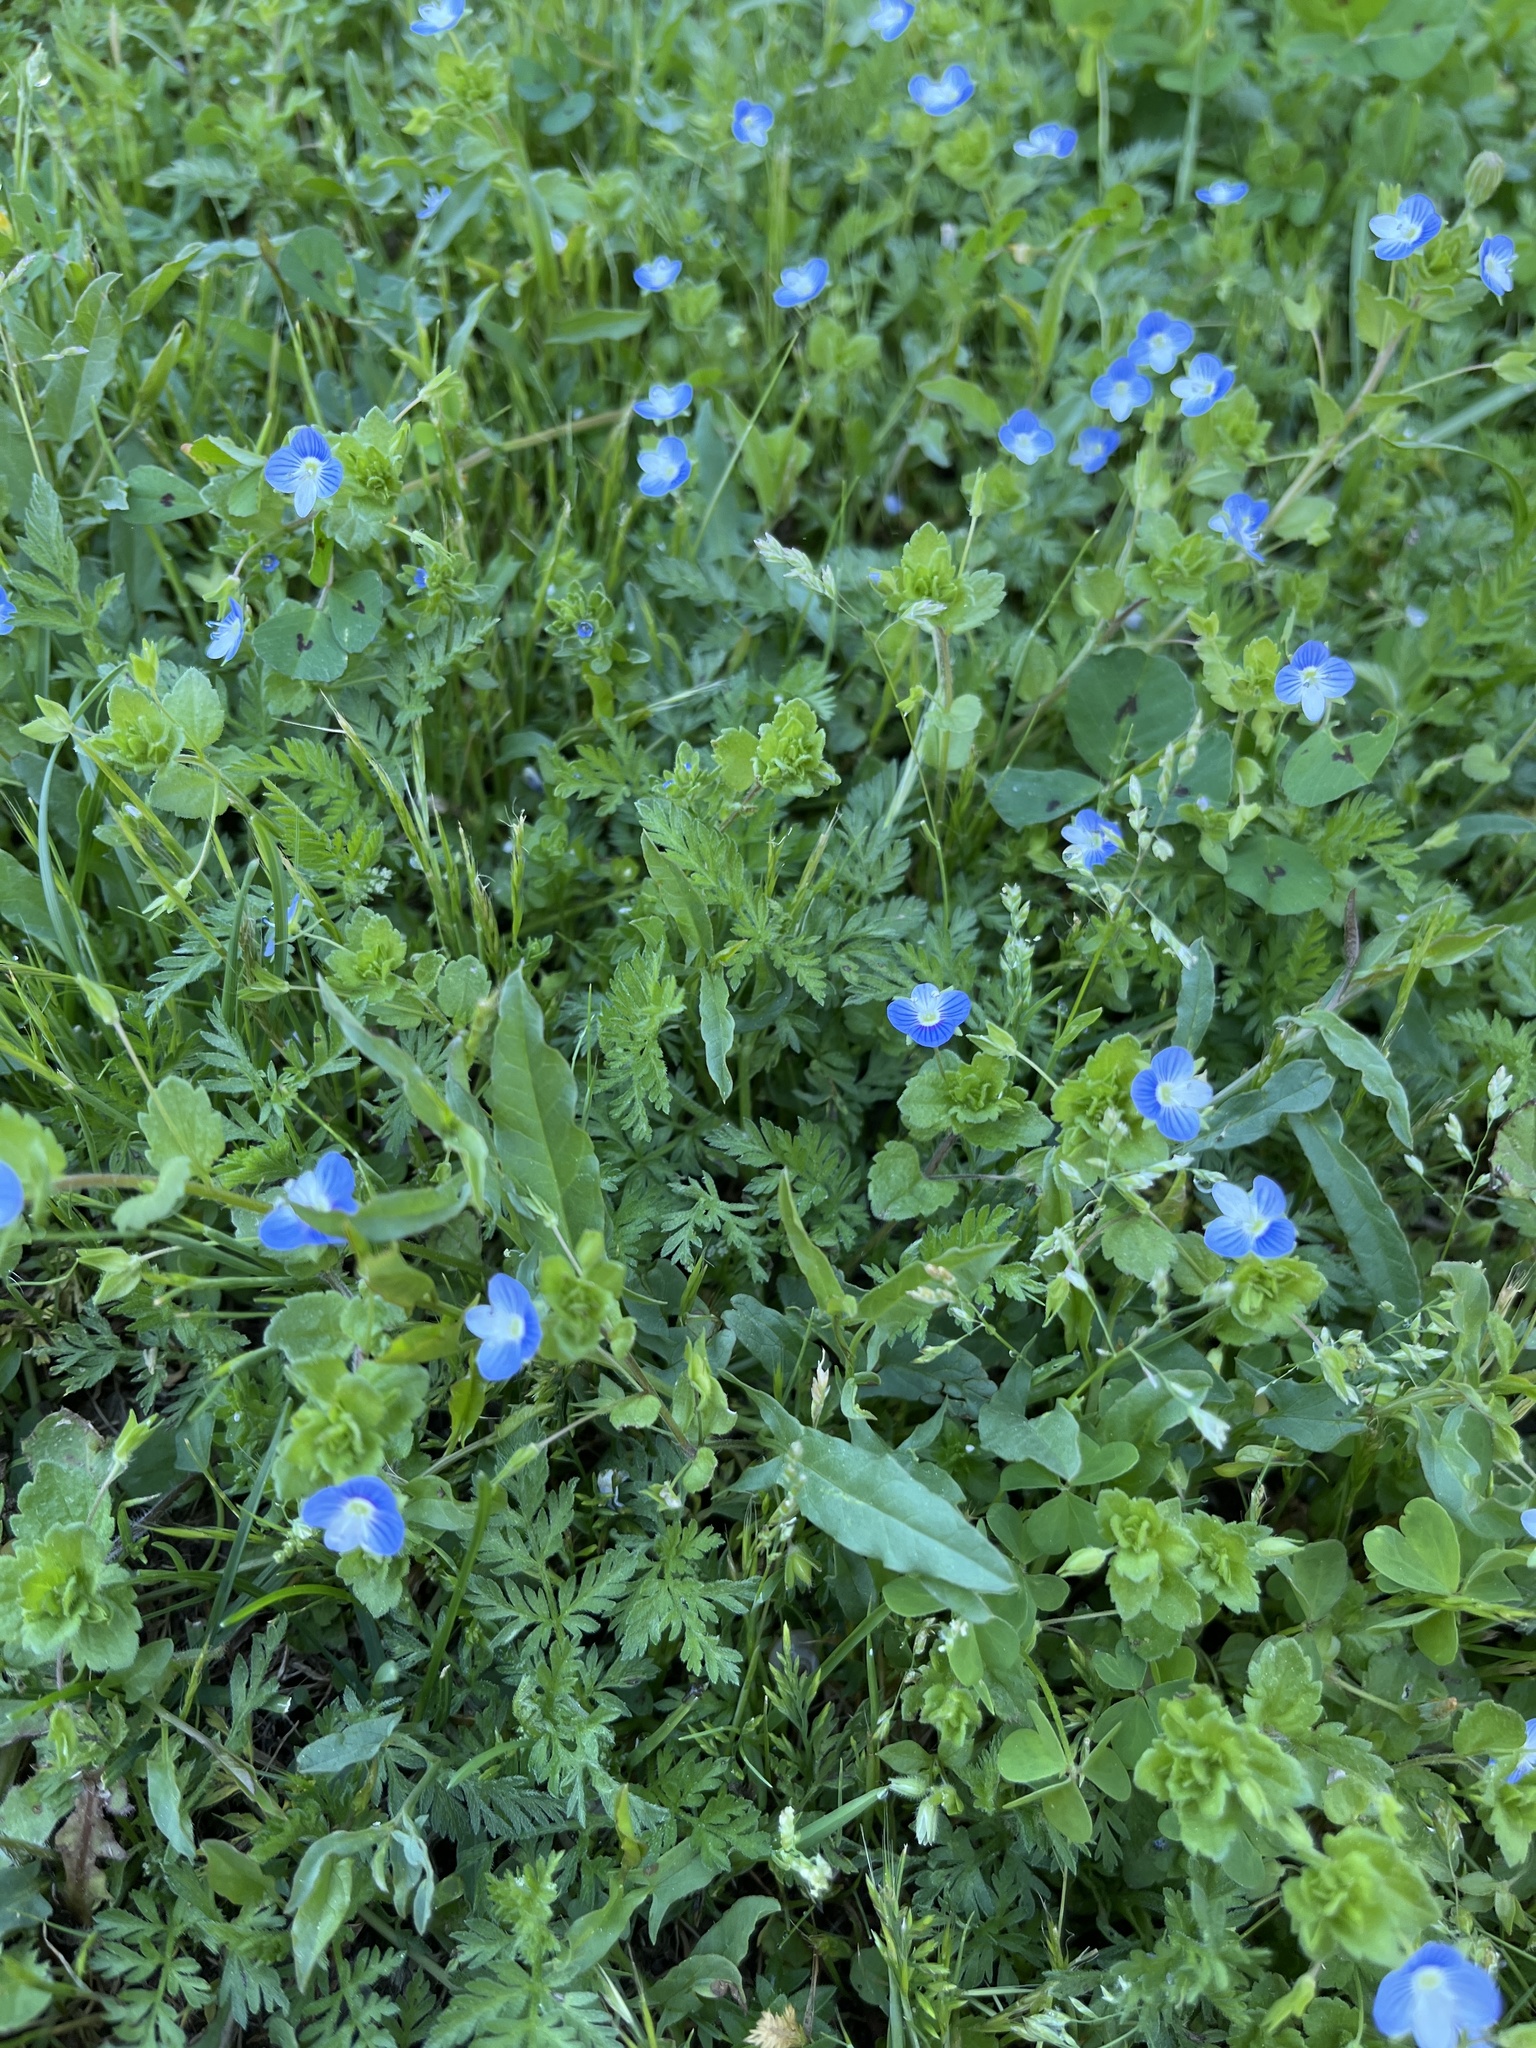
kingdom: Plantae
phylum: Tracheophyta
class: Magnoliopsida
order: Lamiales
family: Plantaginaceae
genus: Veronica
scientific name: Veronica persica
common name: Common field-speedwell
